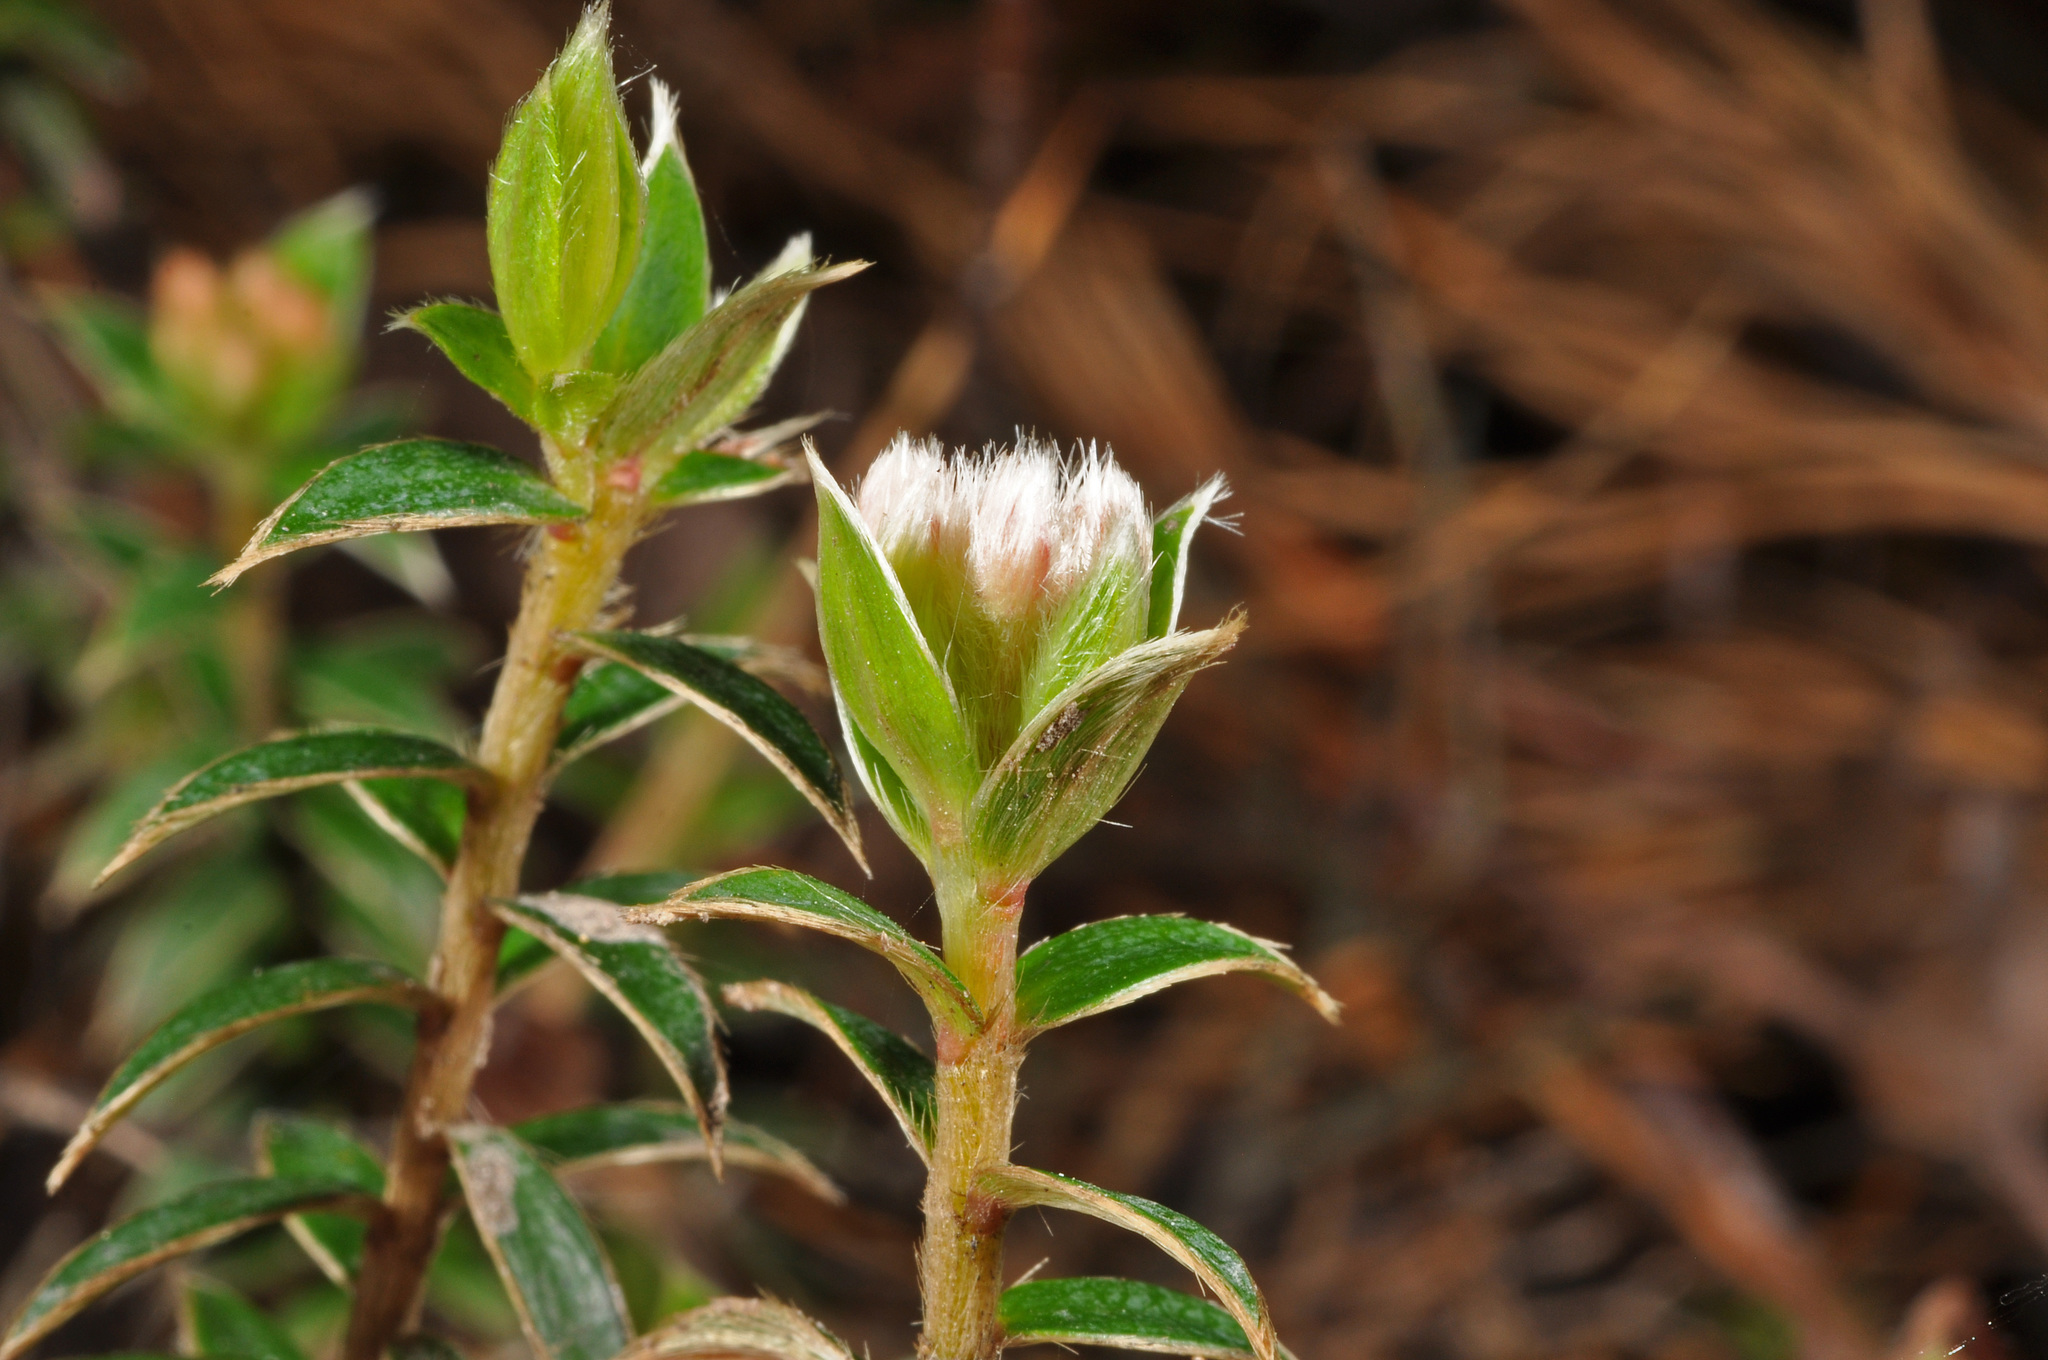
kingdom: Plantae
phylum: Tracheophyta
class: Magnoliopsida
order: Malvales
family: Thymelaeaceae
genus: Pimelea
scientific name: Pimelea pseudolyallii
